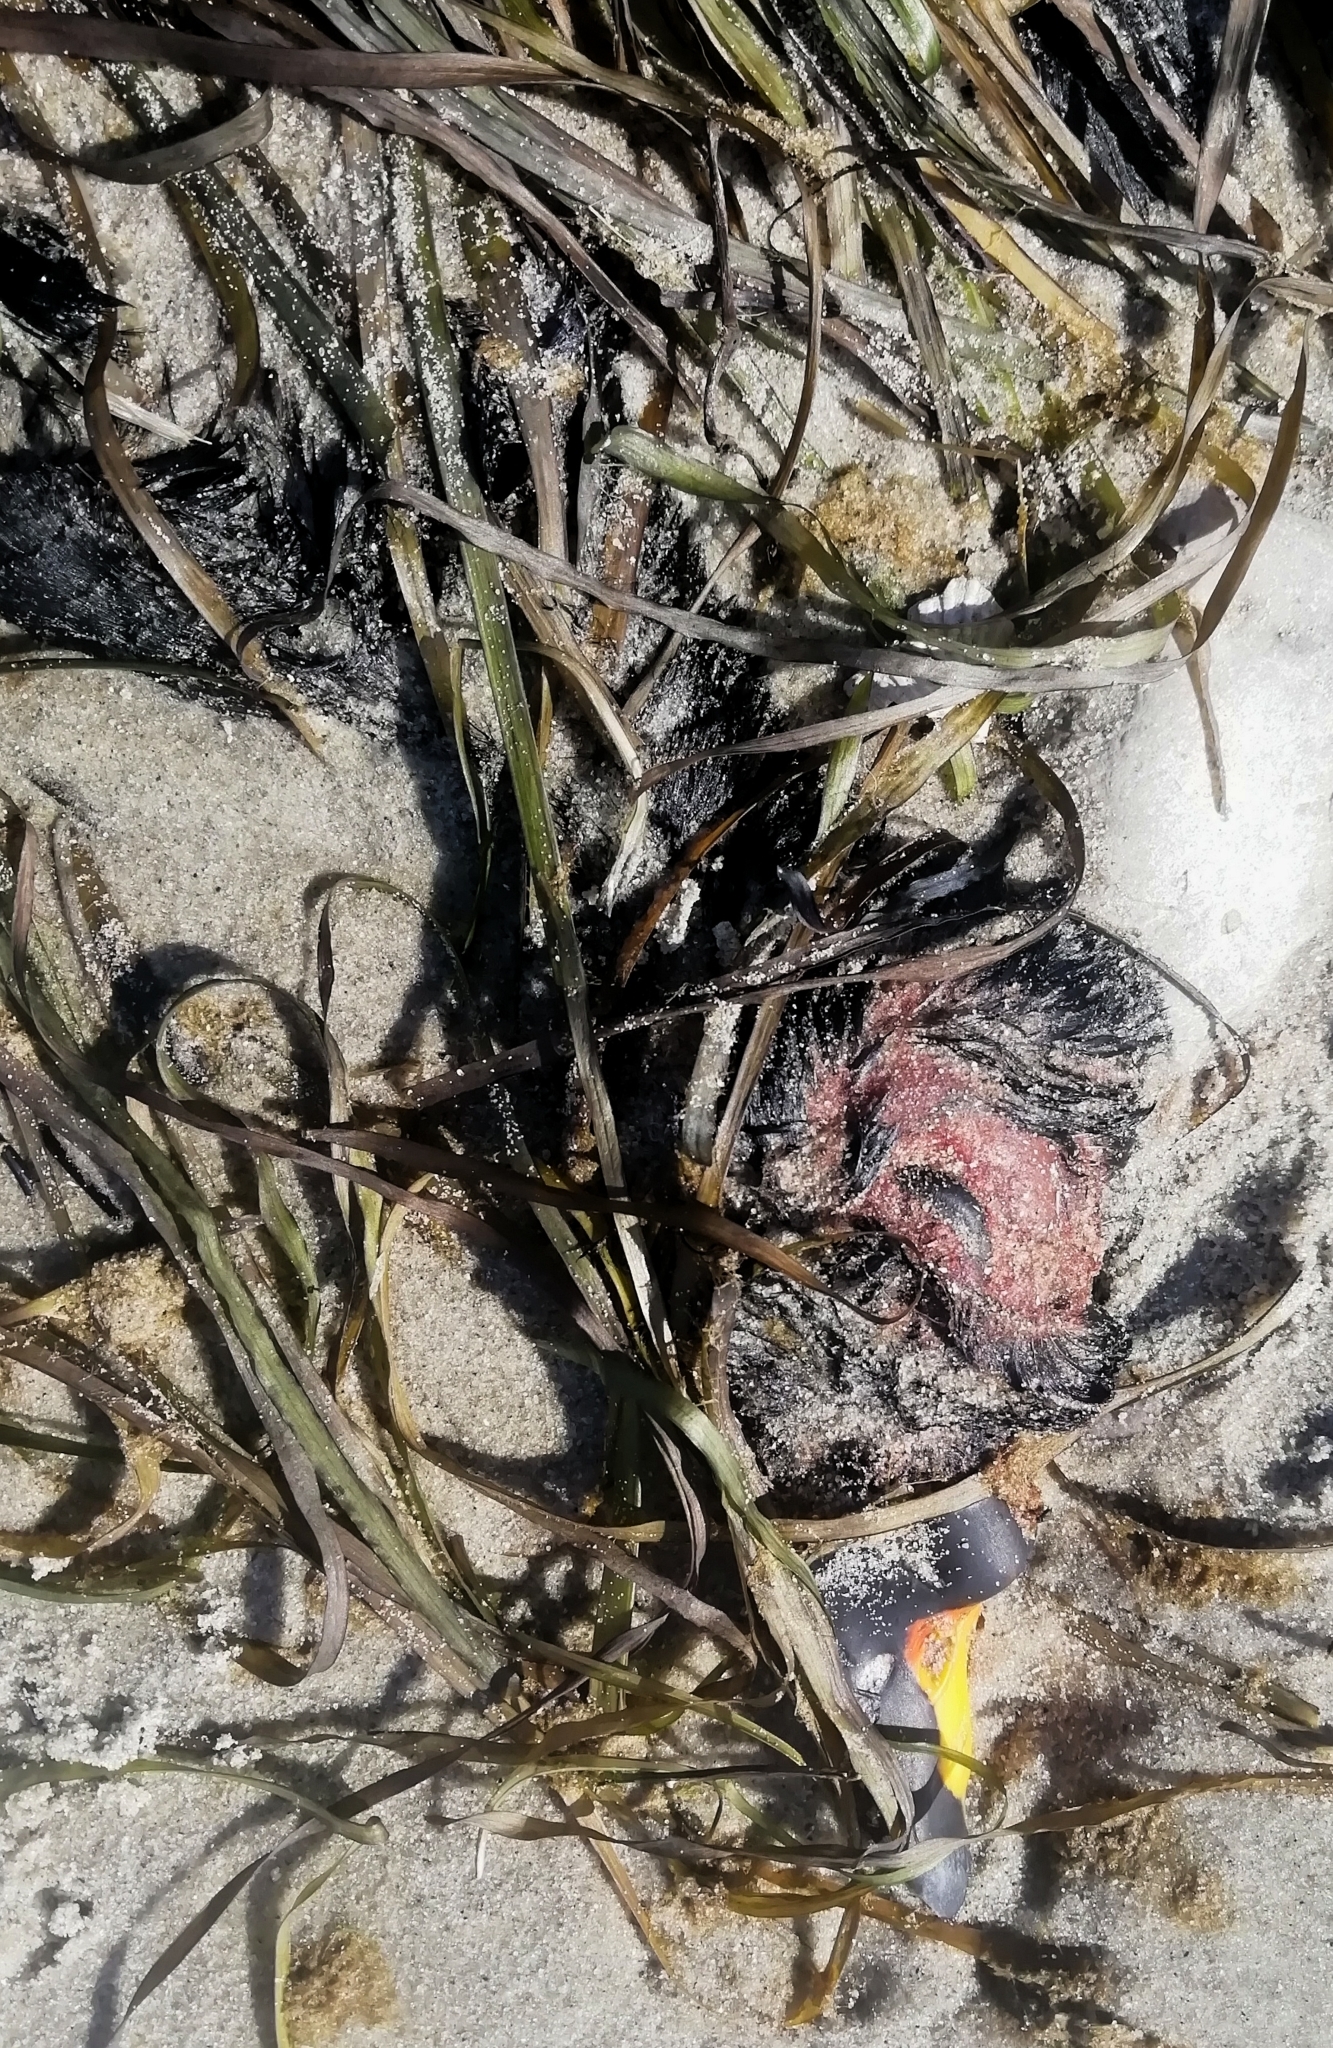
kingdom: Animalia
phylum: Chordata
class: Aves
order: Anseriformes
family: Anatidae
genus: Melanitta
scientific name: Melanitta nigra
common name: Common scoter
